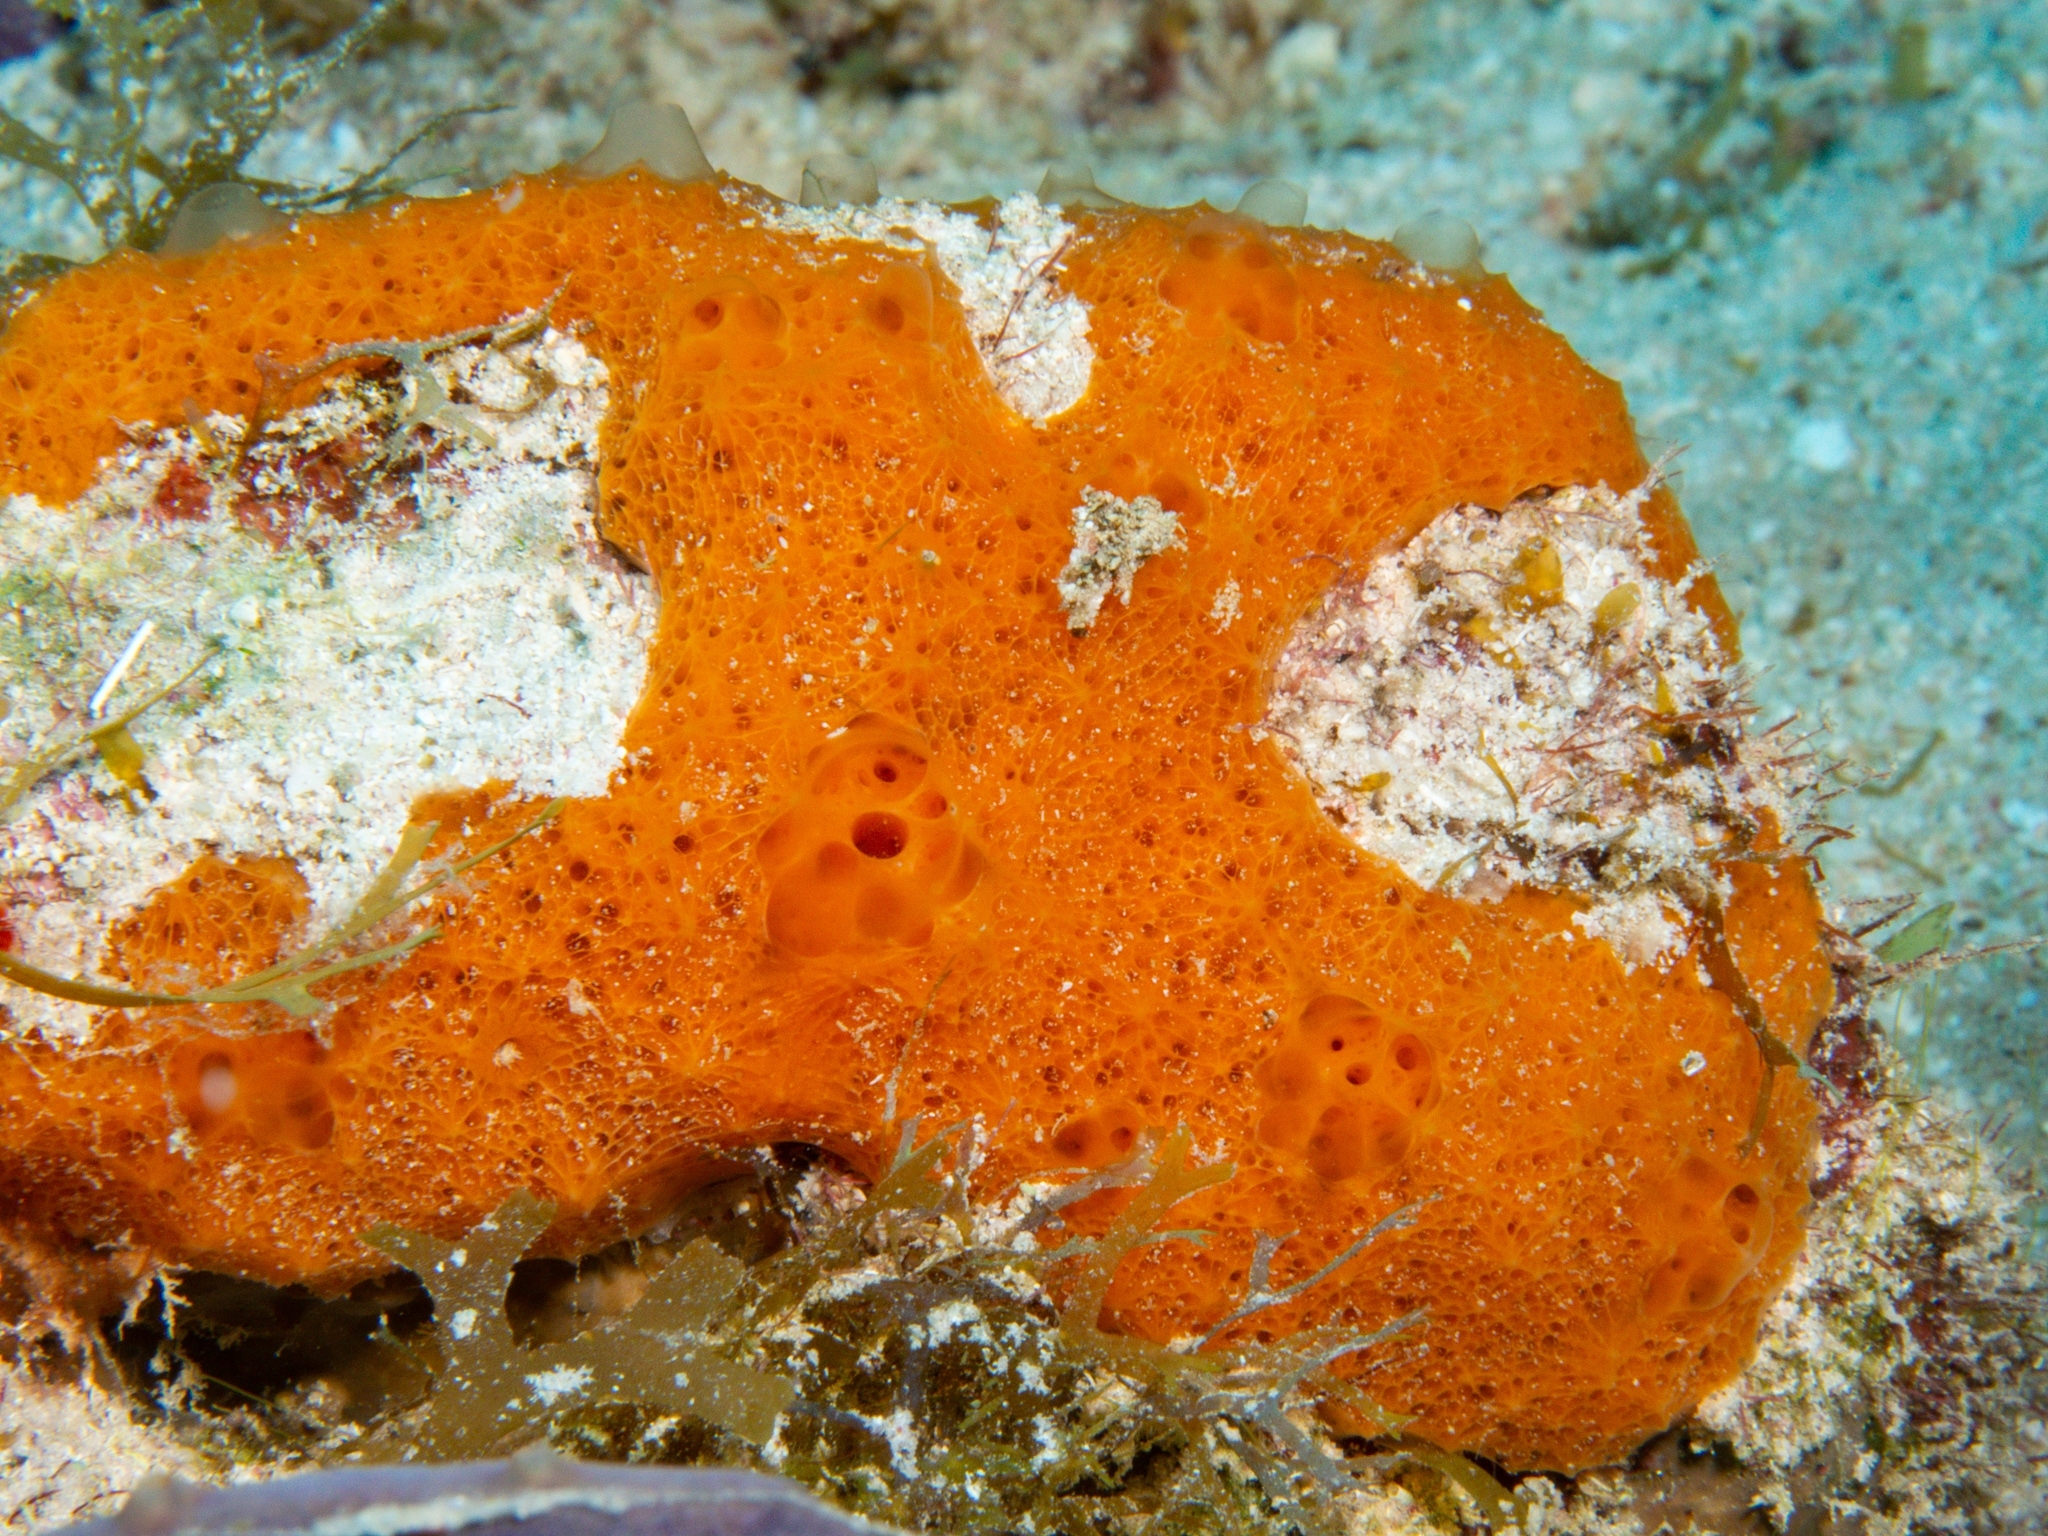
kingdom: Animalia
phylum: Porifera
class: Demospongiae
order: Scopalinida
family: Scopalinidae
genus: Scopalina
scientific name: Scopalina ruetzleri
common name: Orange lumpy encrusting sponge
